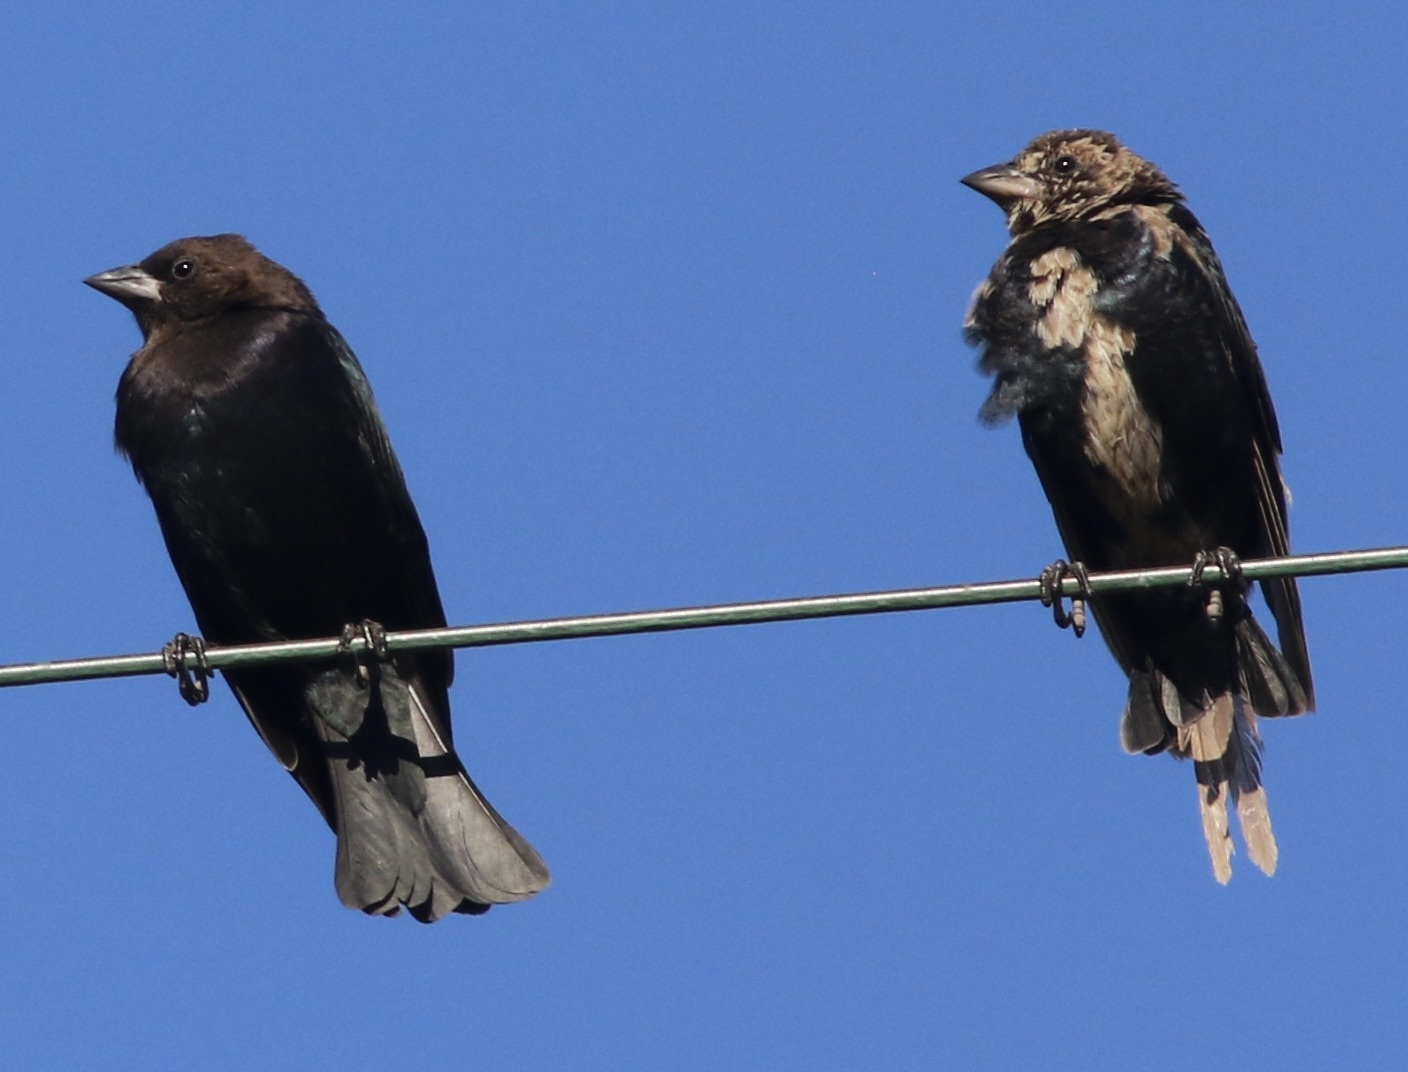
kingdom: Animalia
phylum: Chordata
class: Aves
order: Passeriformes
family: Icteridae
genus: Molothrus
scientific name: Molothrus ater
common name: Brown-headed cowbird
